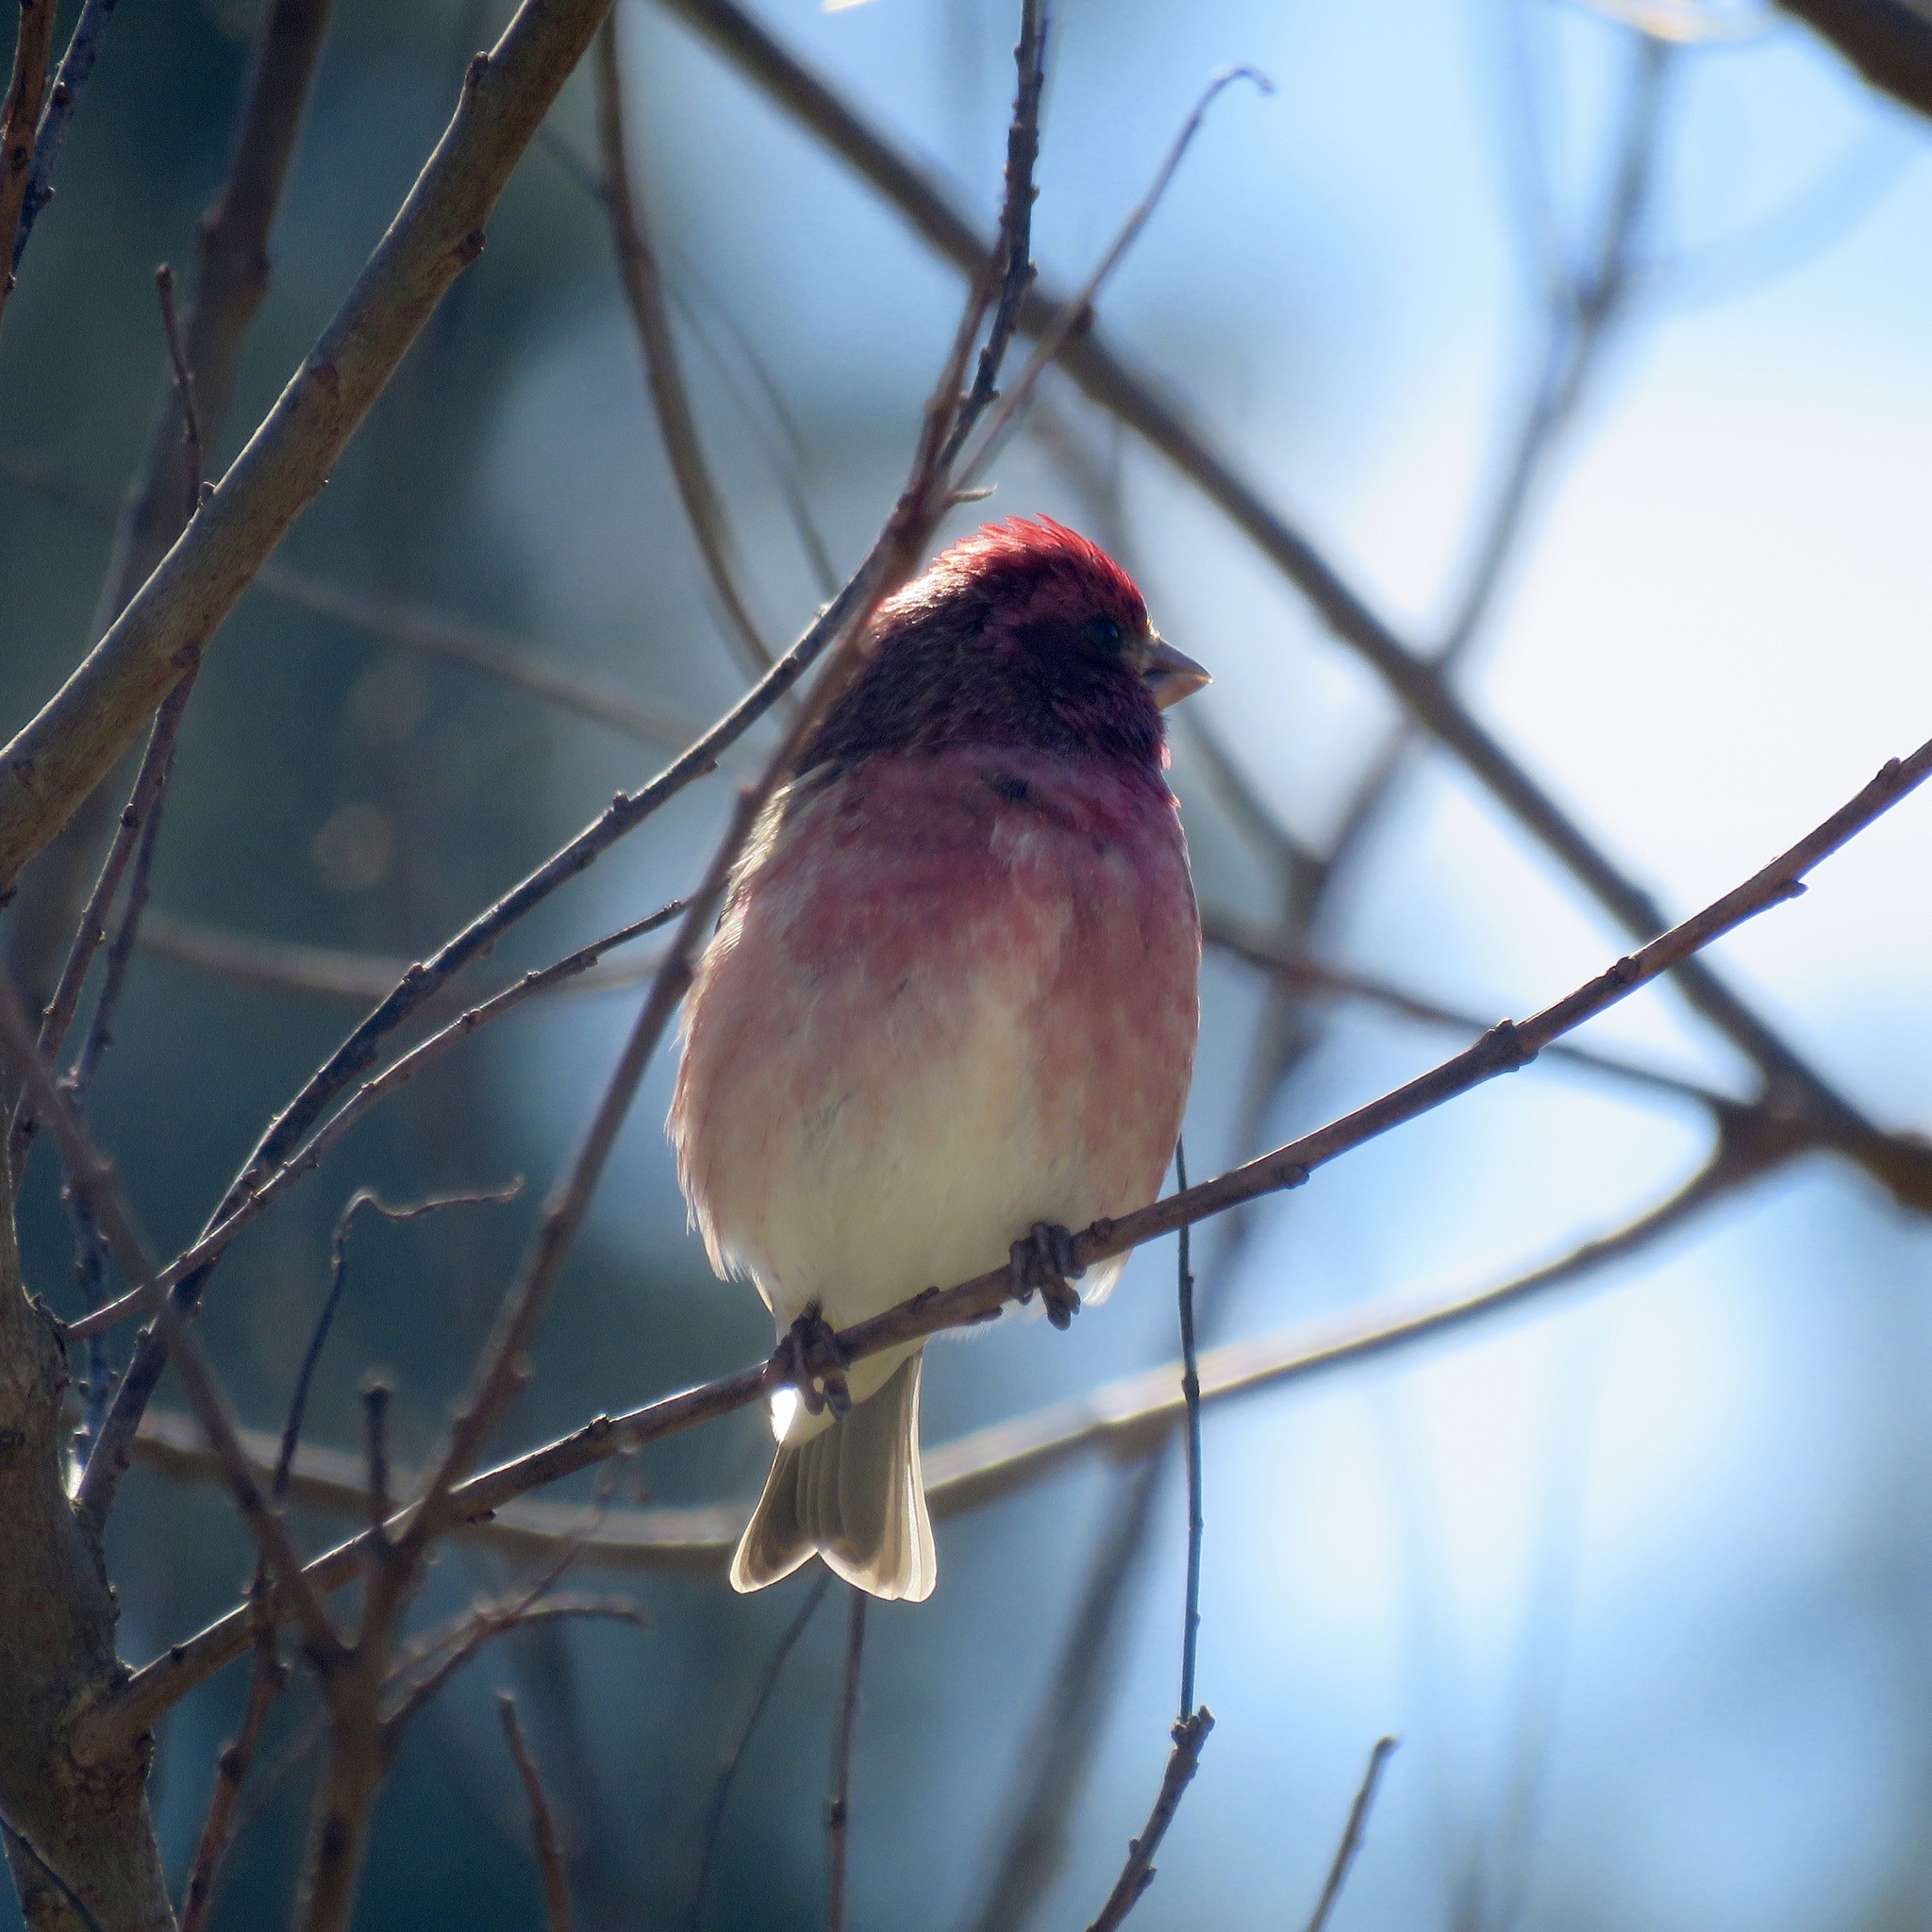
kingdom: Animalia
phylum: Chordata
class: Aves
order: Passeriformes
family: Fringillidae
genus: Haemorhous
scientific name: Haemorhous purpureus
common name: Purple finch
